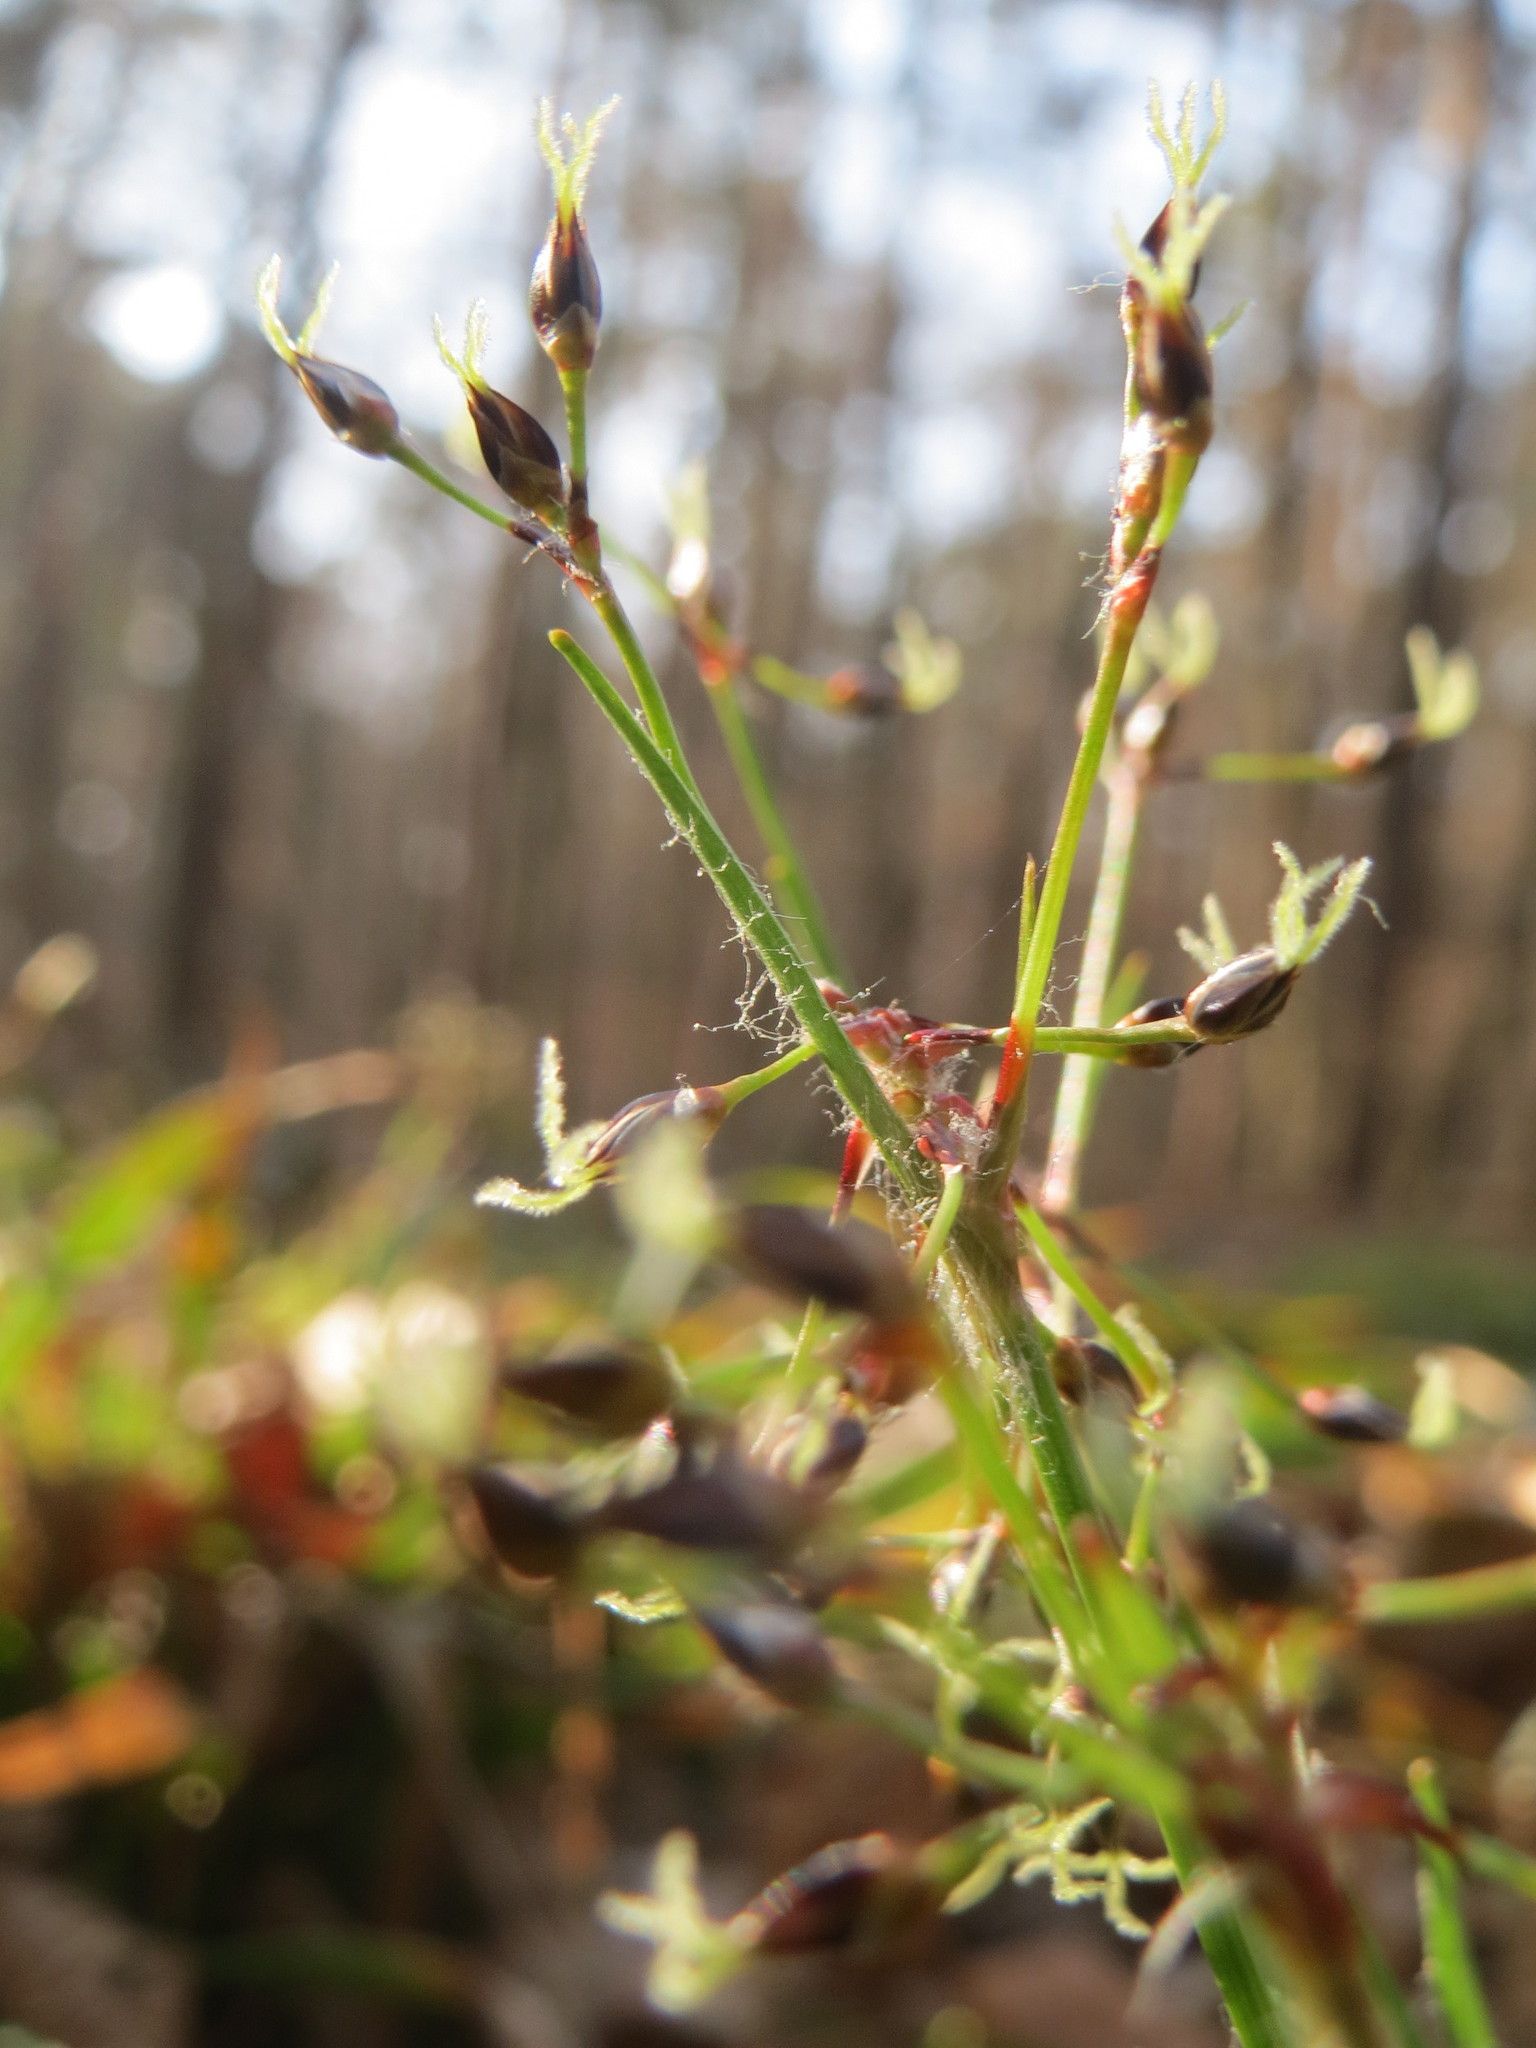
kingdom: Plantae
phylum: Tracheophyta
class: Liliopsida
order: Poales
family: Juncaceae
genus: Luzula
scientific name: Luzula pilosa
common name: Hairy wood-rush
